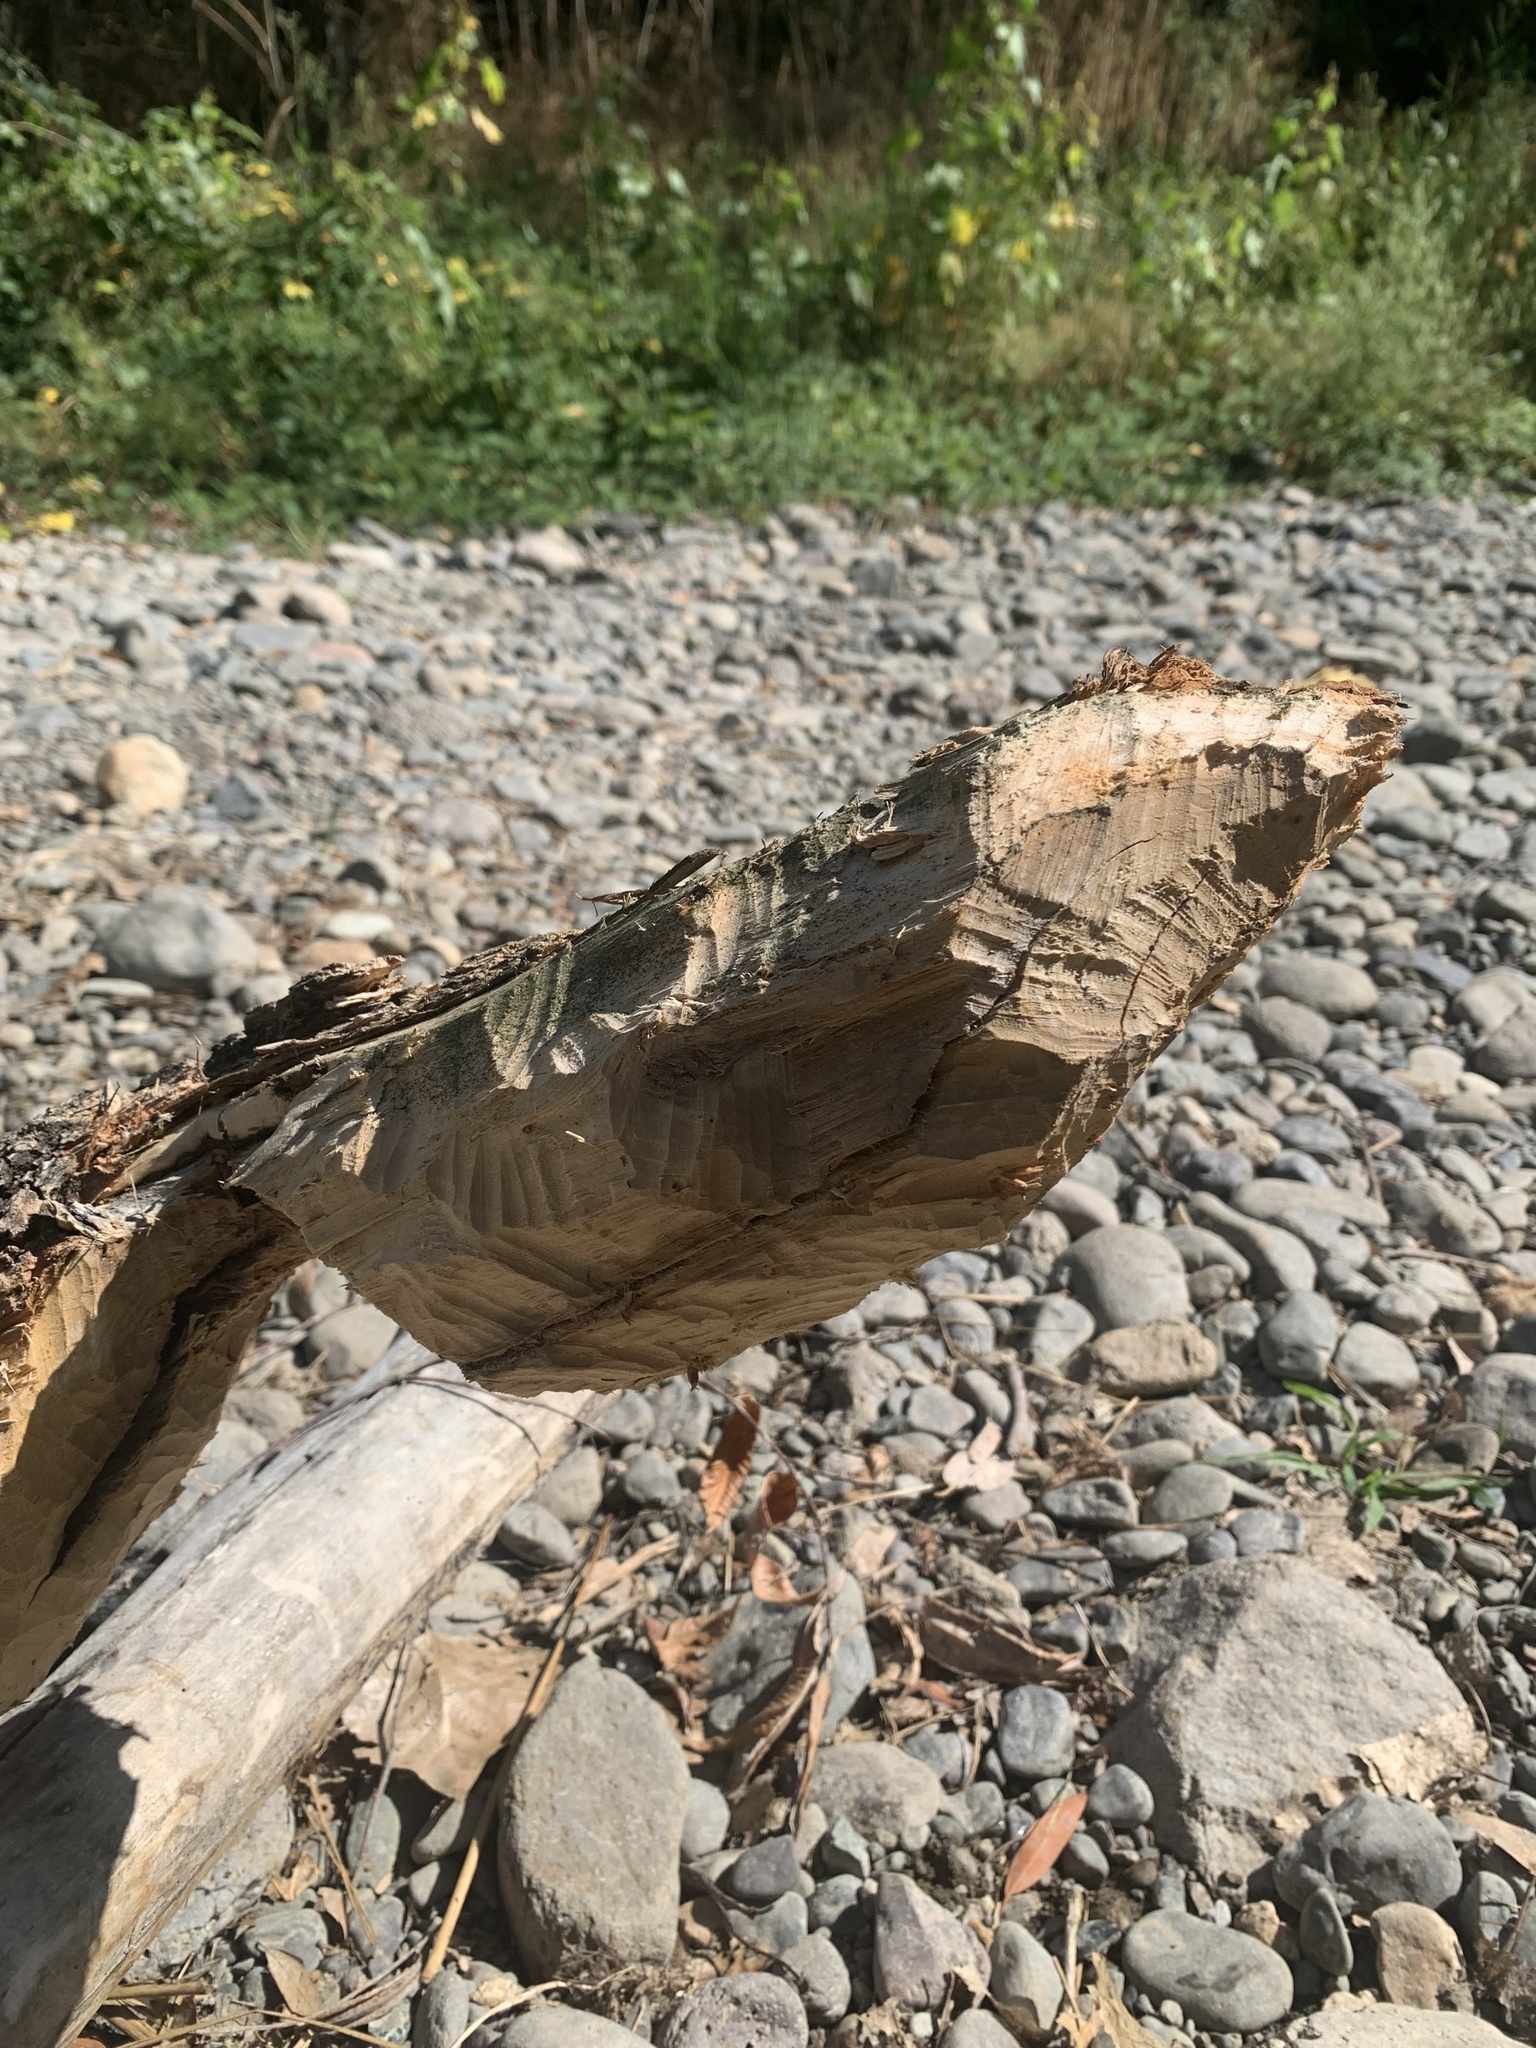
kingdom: Animalia
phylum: Chordata
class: Mammalia
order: Rodentia
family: Castoridae
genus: Castor
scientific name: Castor canadensis
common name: American beaver
